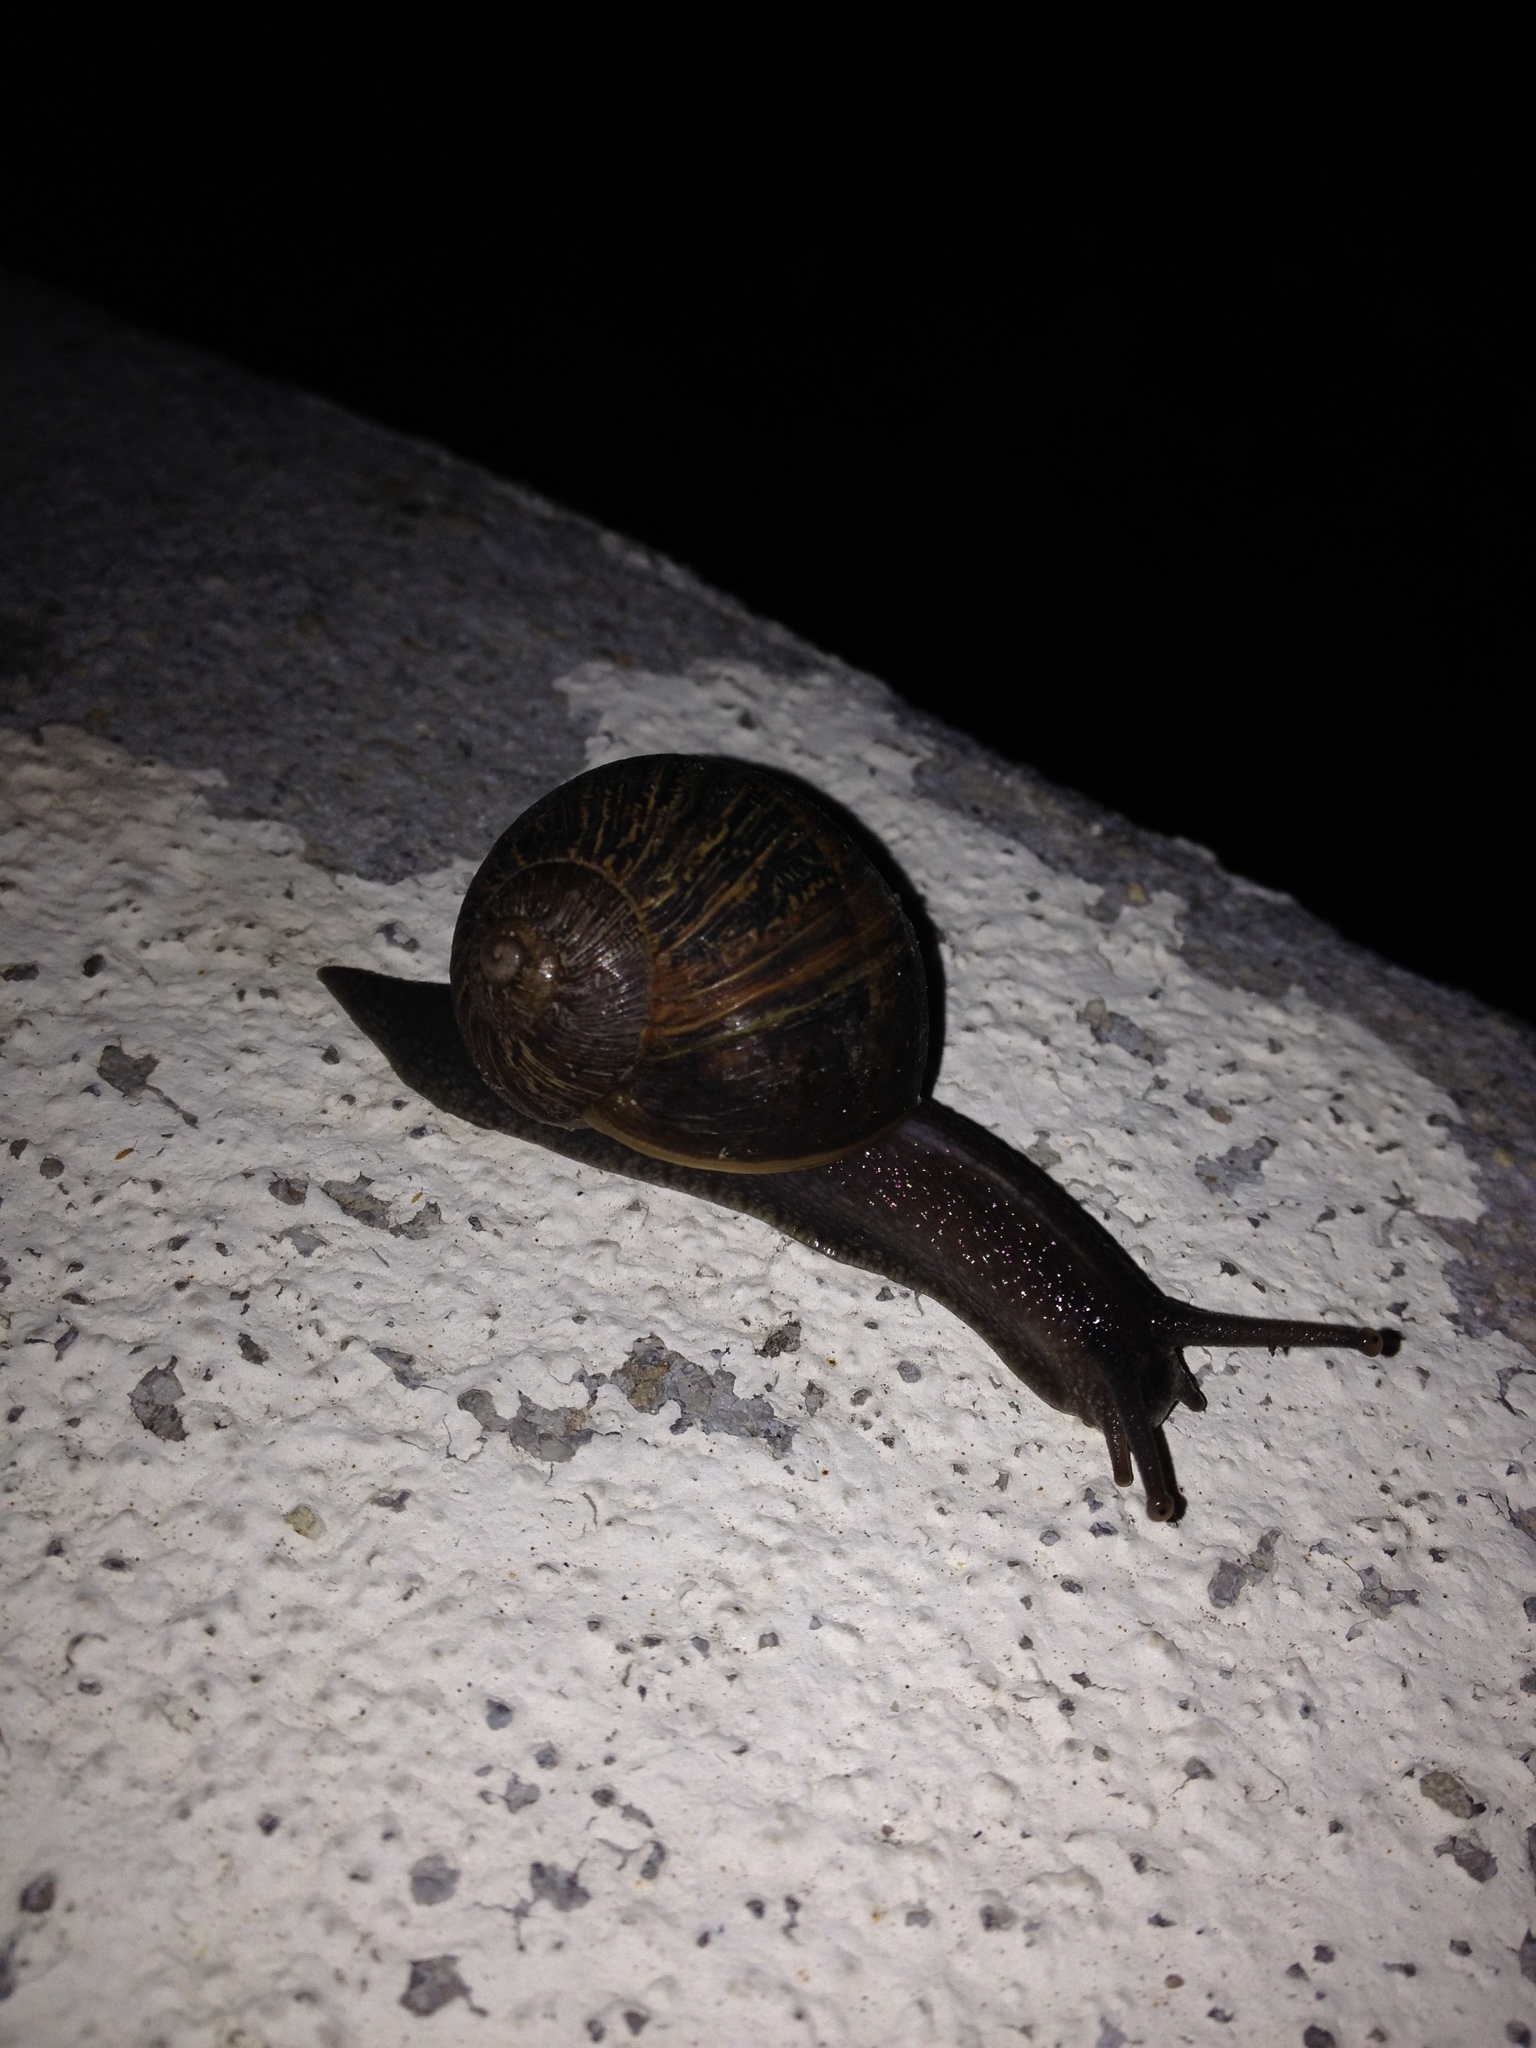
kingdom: Animalia
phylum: Mollusca
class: Gastropoda
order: Stylommatophora
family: Helicidae
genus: Cornu
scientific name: Cornu aspersum
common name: Brown garden snail
